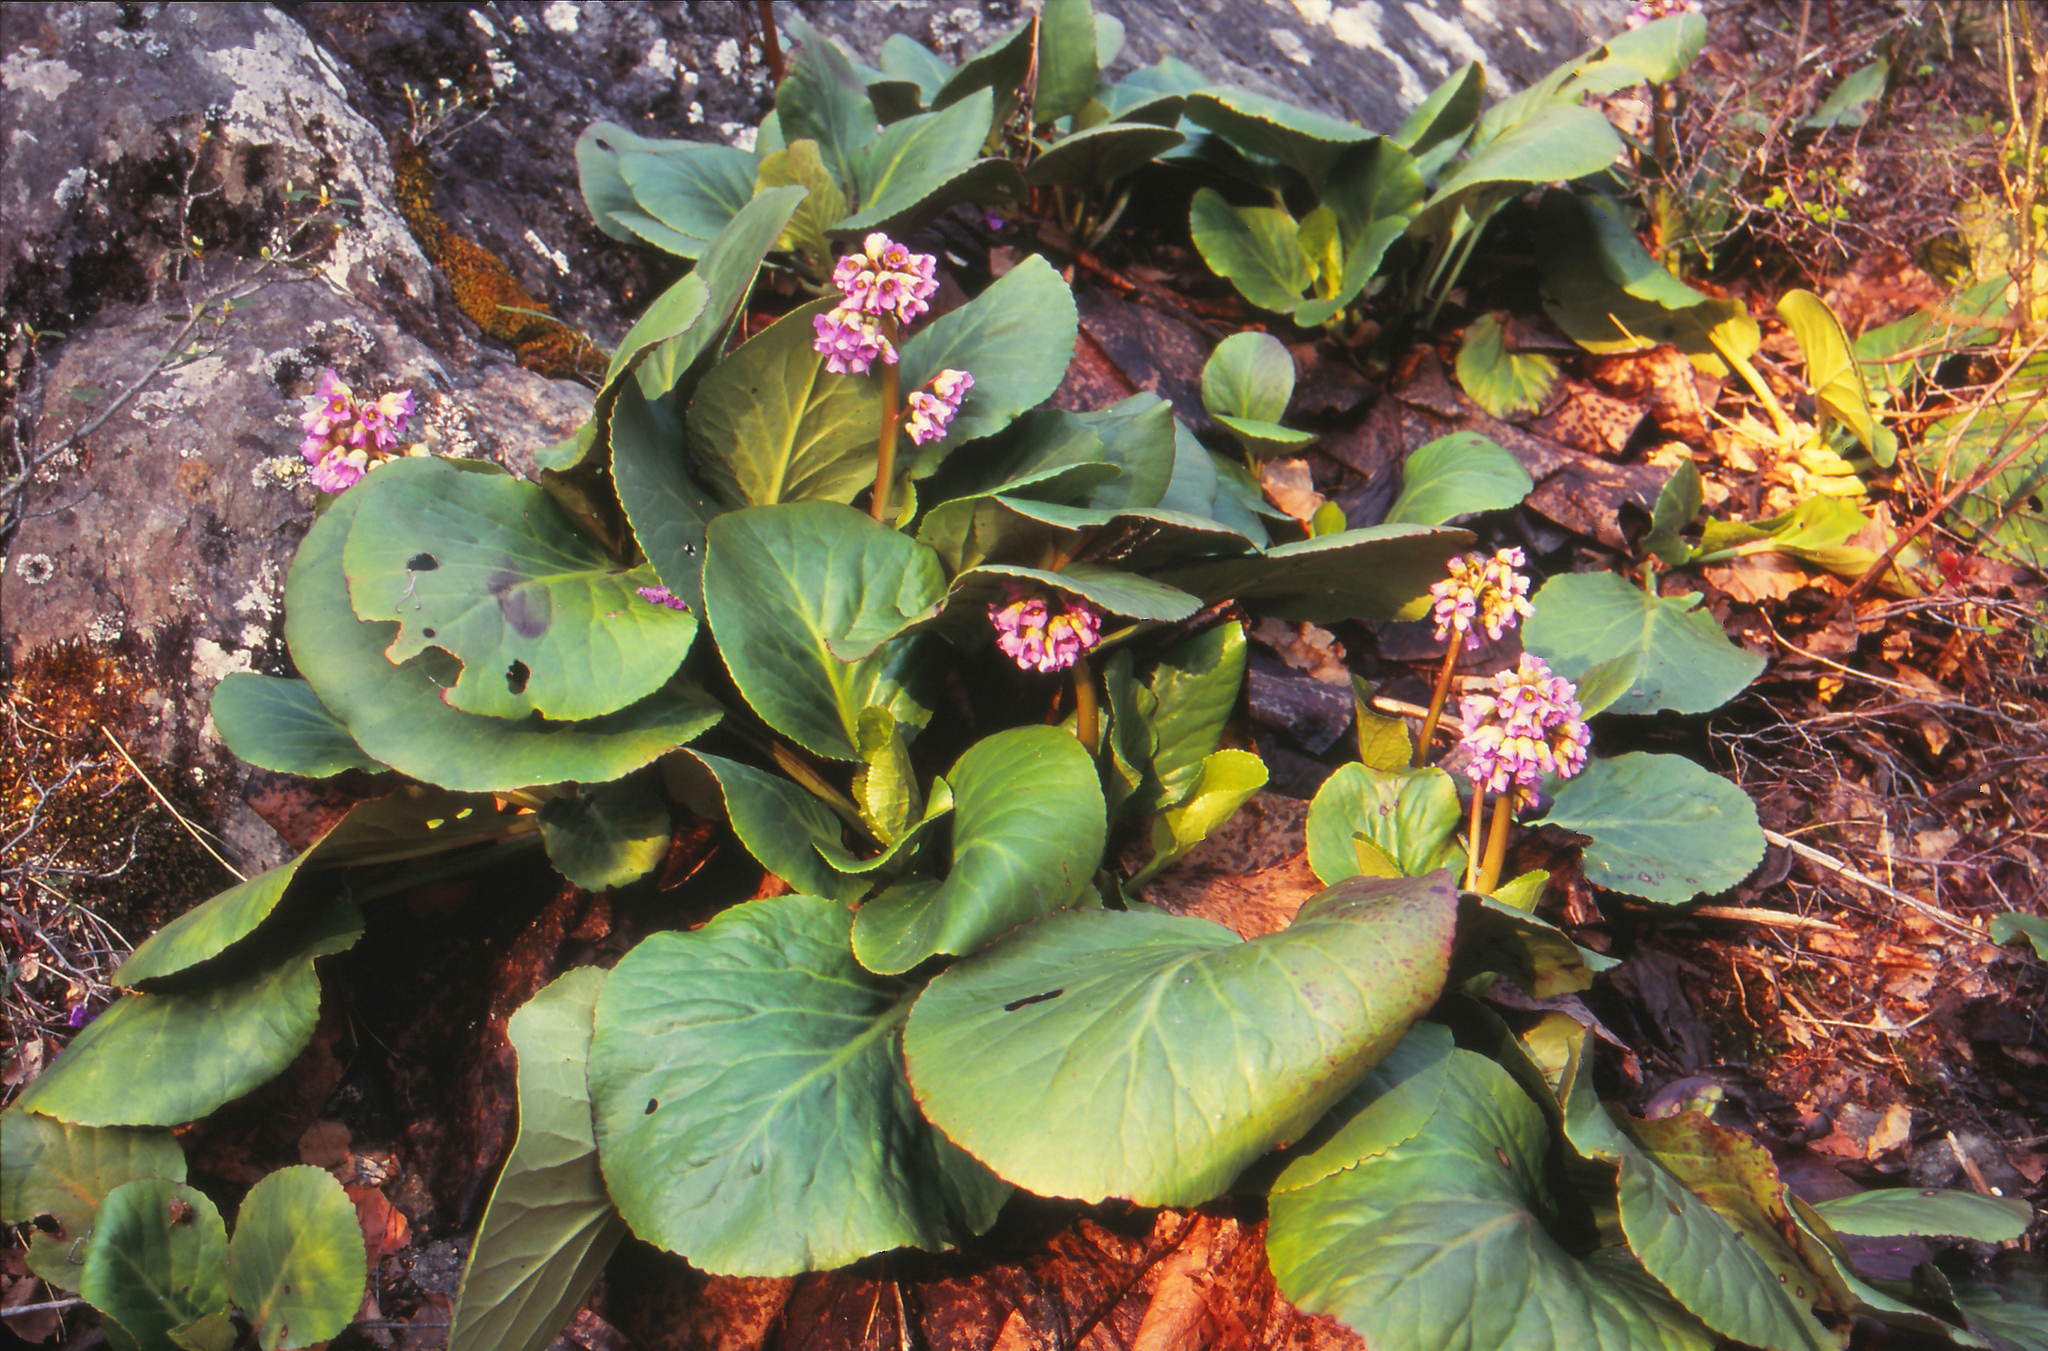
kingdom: Plantae
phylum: Tracheophyta
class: Magnoliopsida
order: Saxifragales
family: Saxifragaceae
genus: Bergenia
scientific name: Bergenia crassifolia
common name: Elephant-ears
